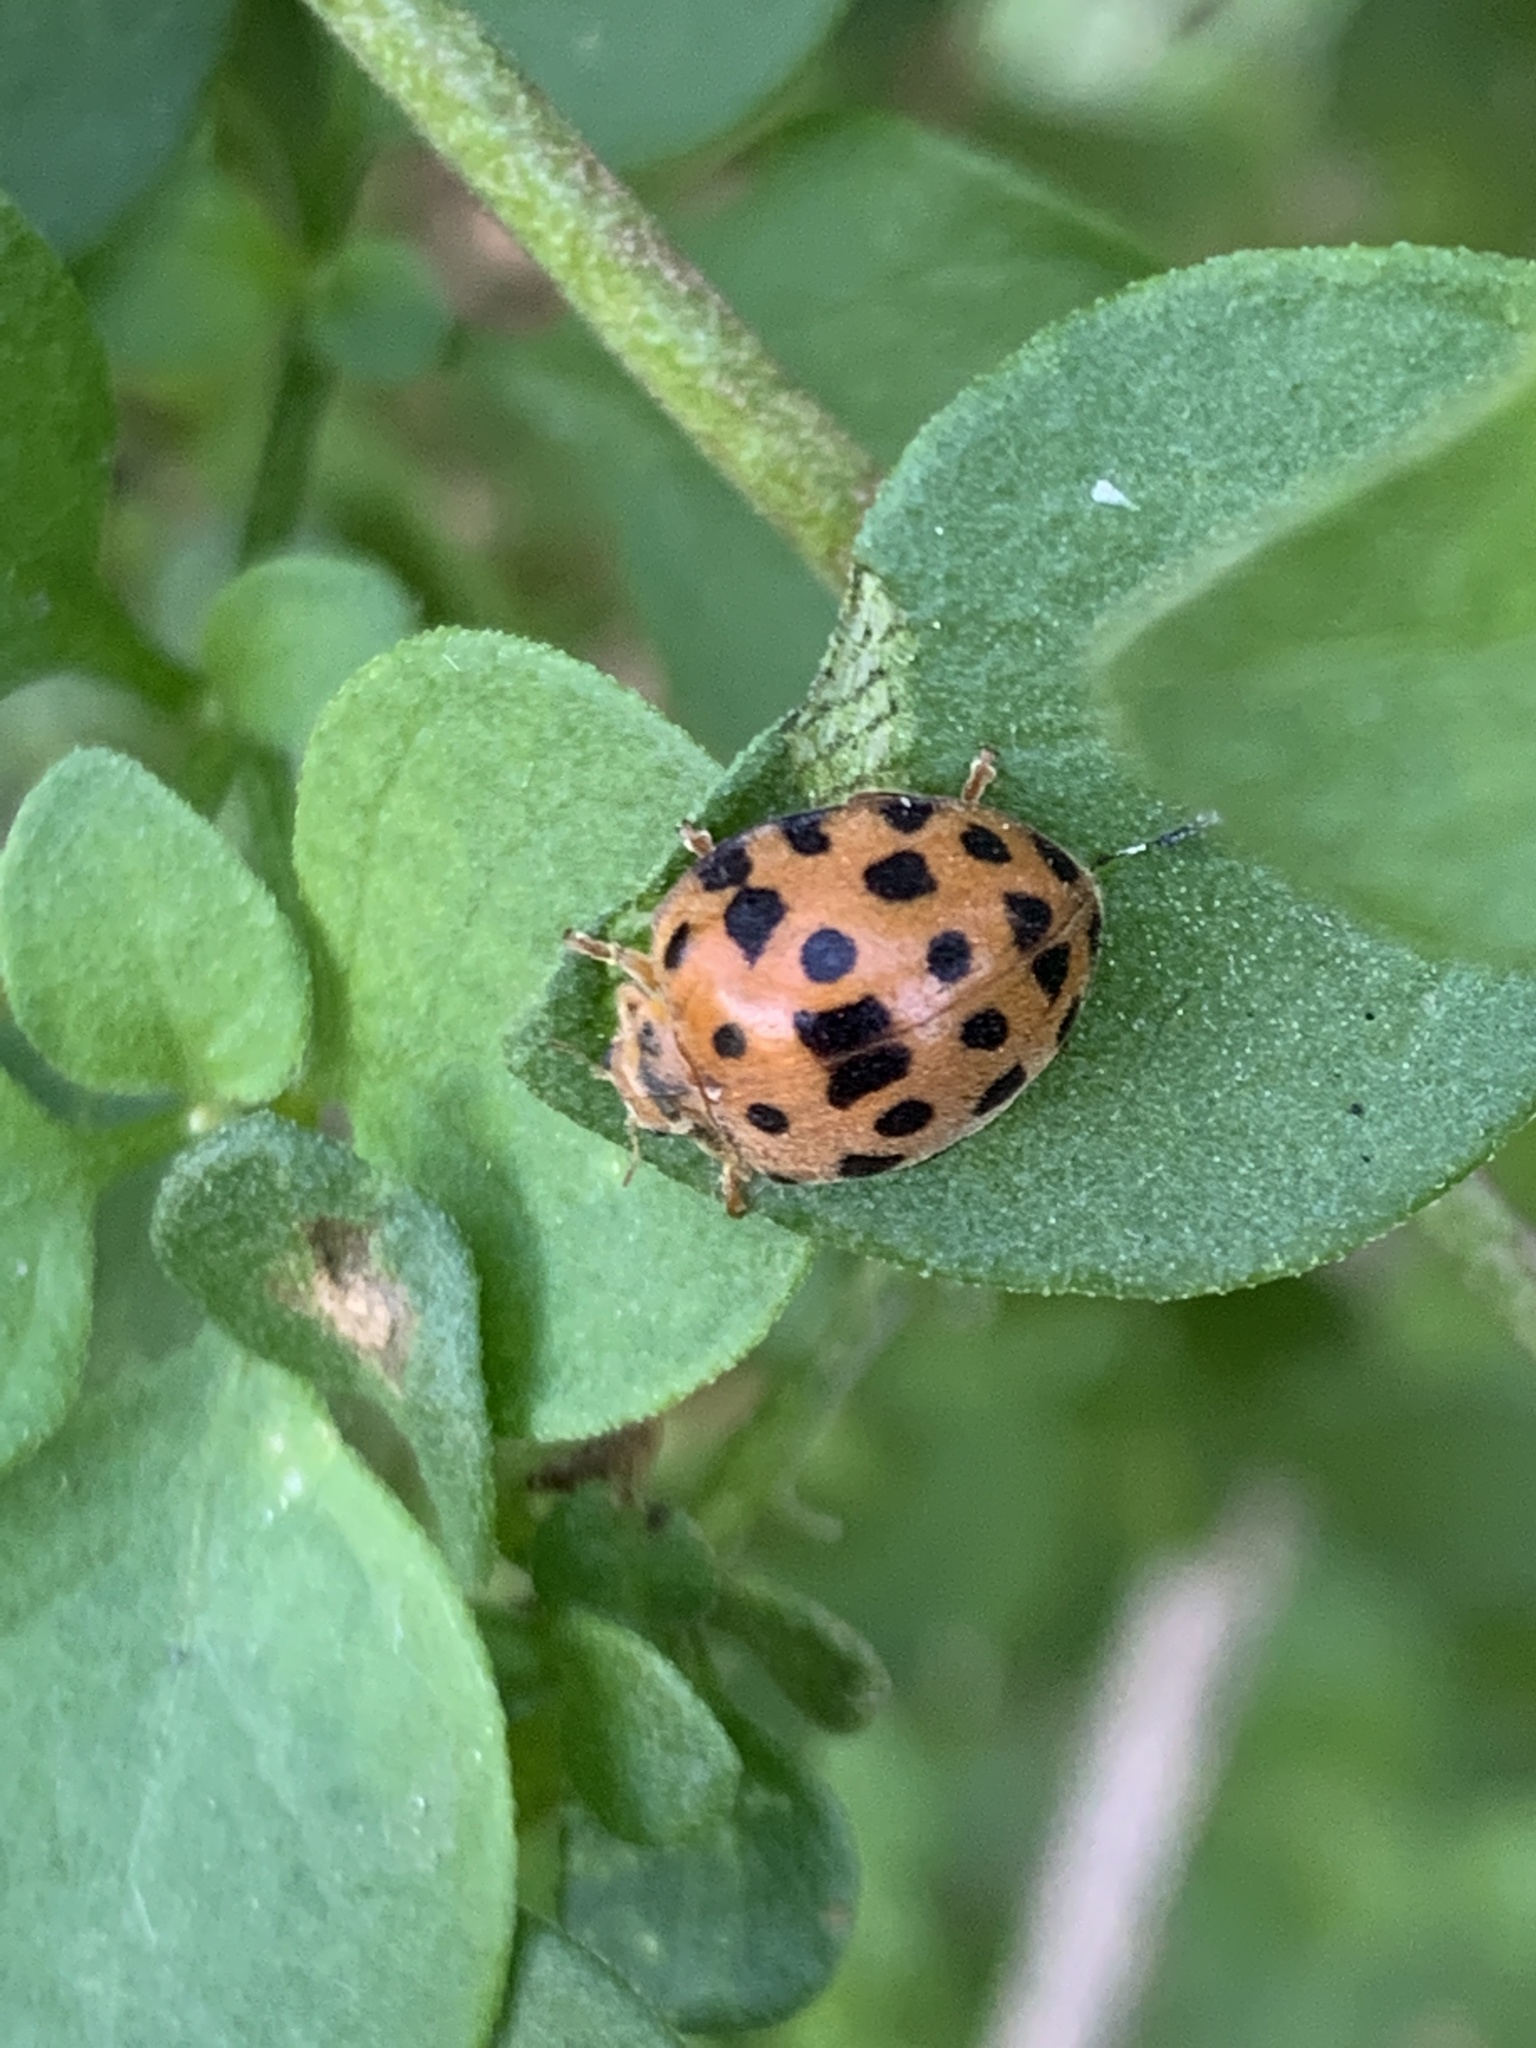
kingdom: Animalia
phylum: Arthropoda
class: Insecta
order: Coleoptera
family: Coccinellidae
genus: Henosepilachna
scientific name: Henosepilachna vigintioctopunctata
